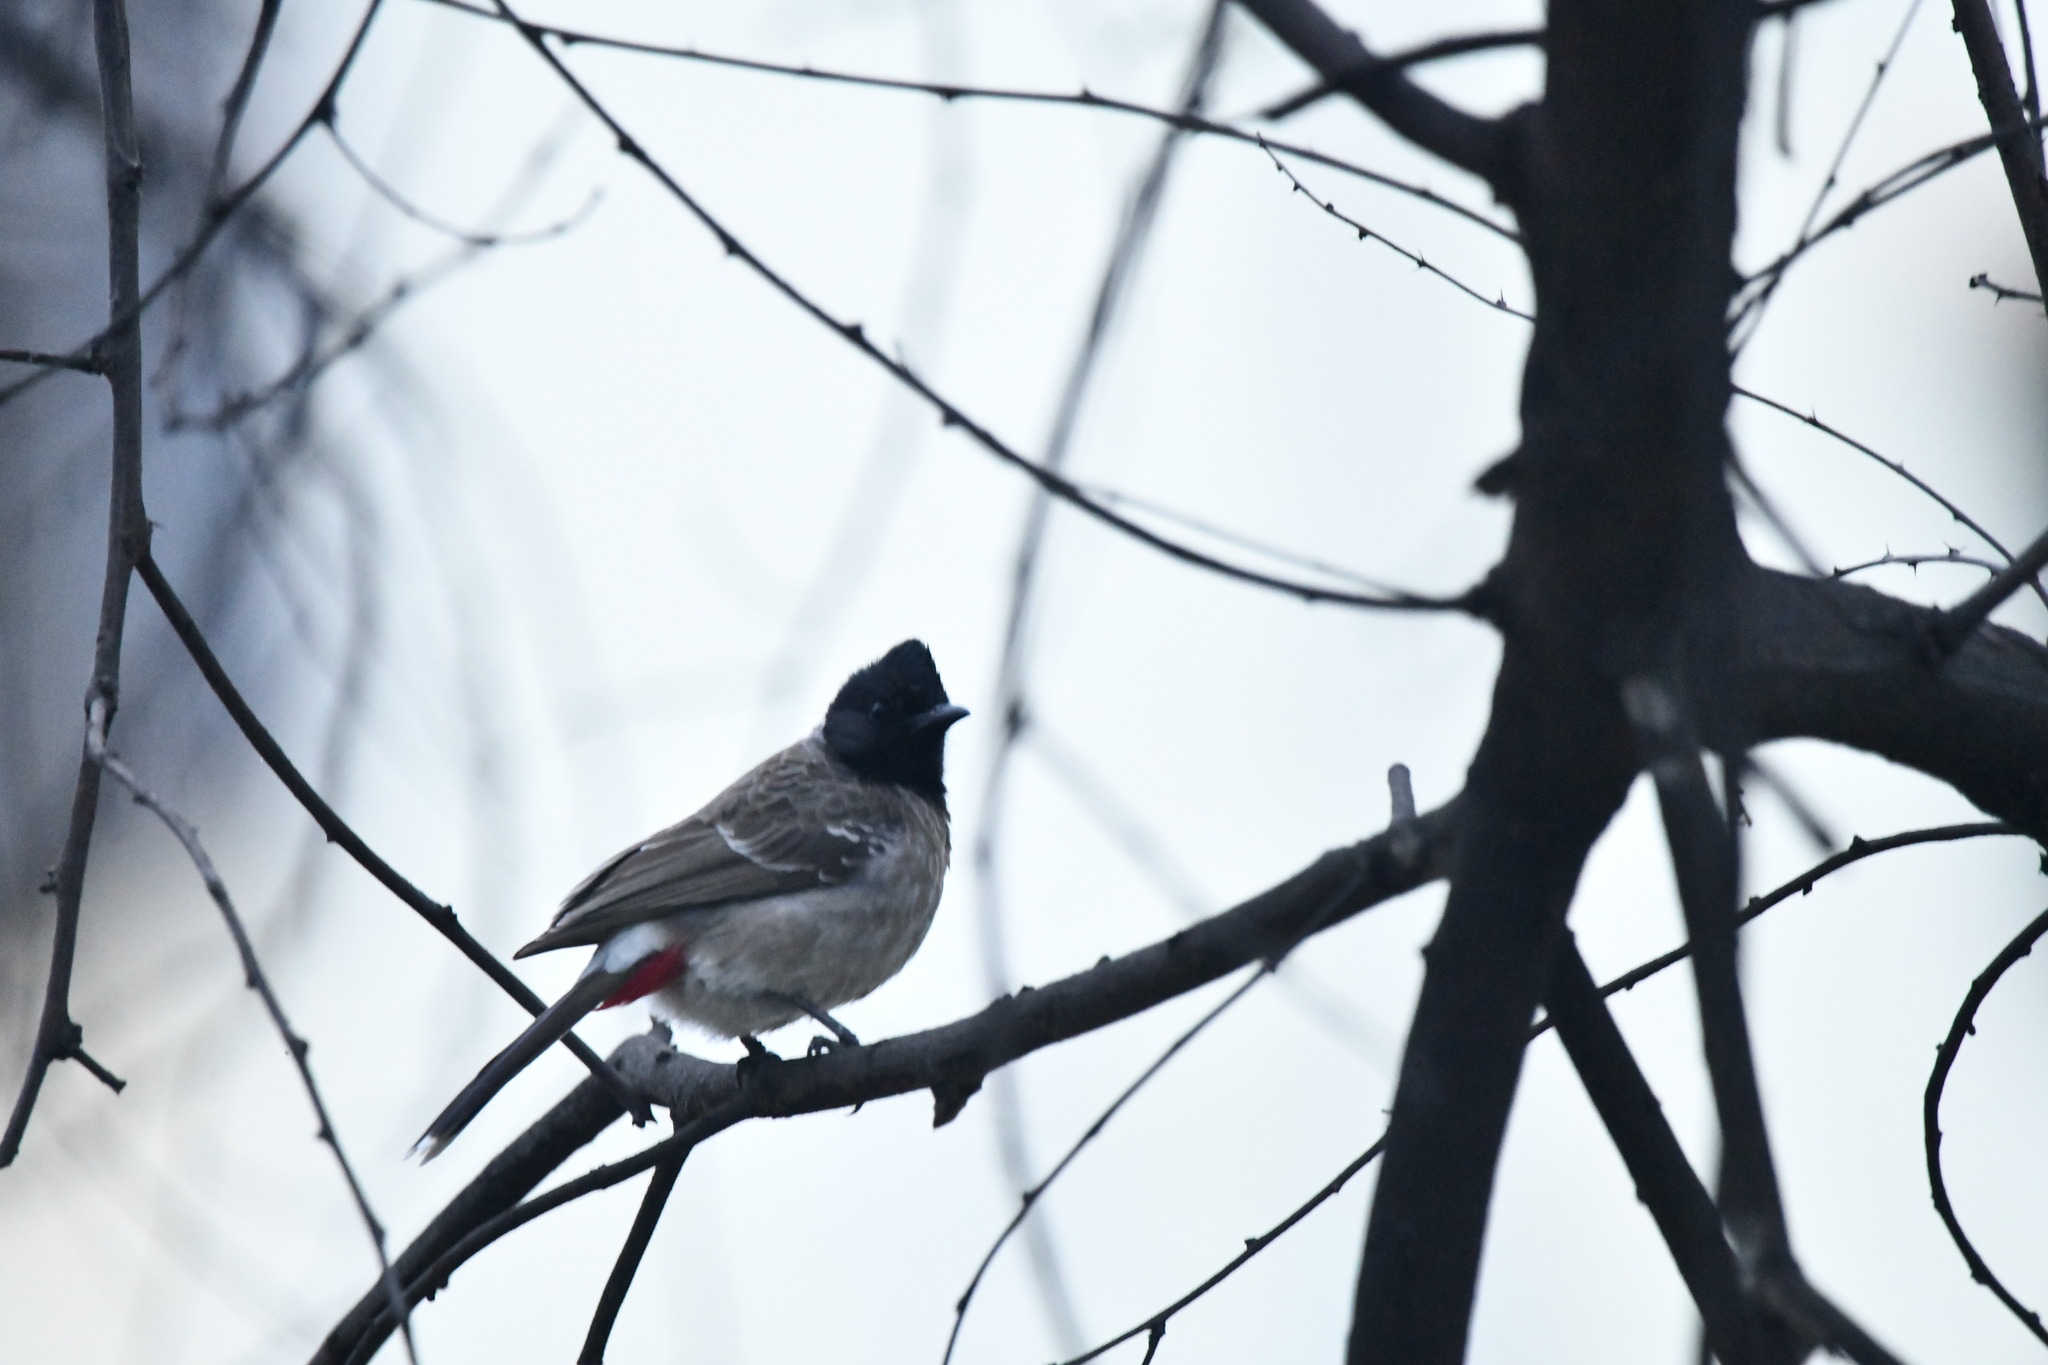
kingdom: Animalia
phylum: Chordata
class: Aves
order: Passeriformes
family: Pycnonotidae
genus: Pycnonotus
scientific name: Pycnonotus cafer
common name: Red-vented bulbul
